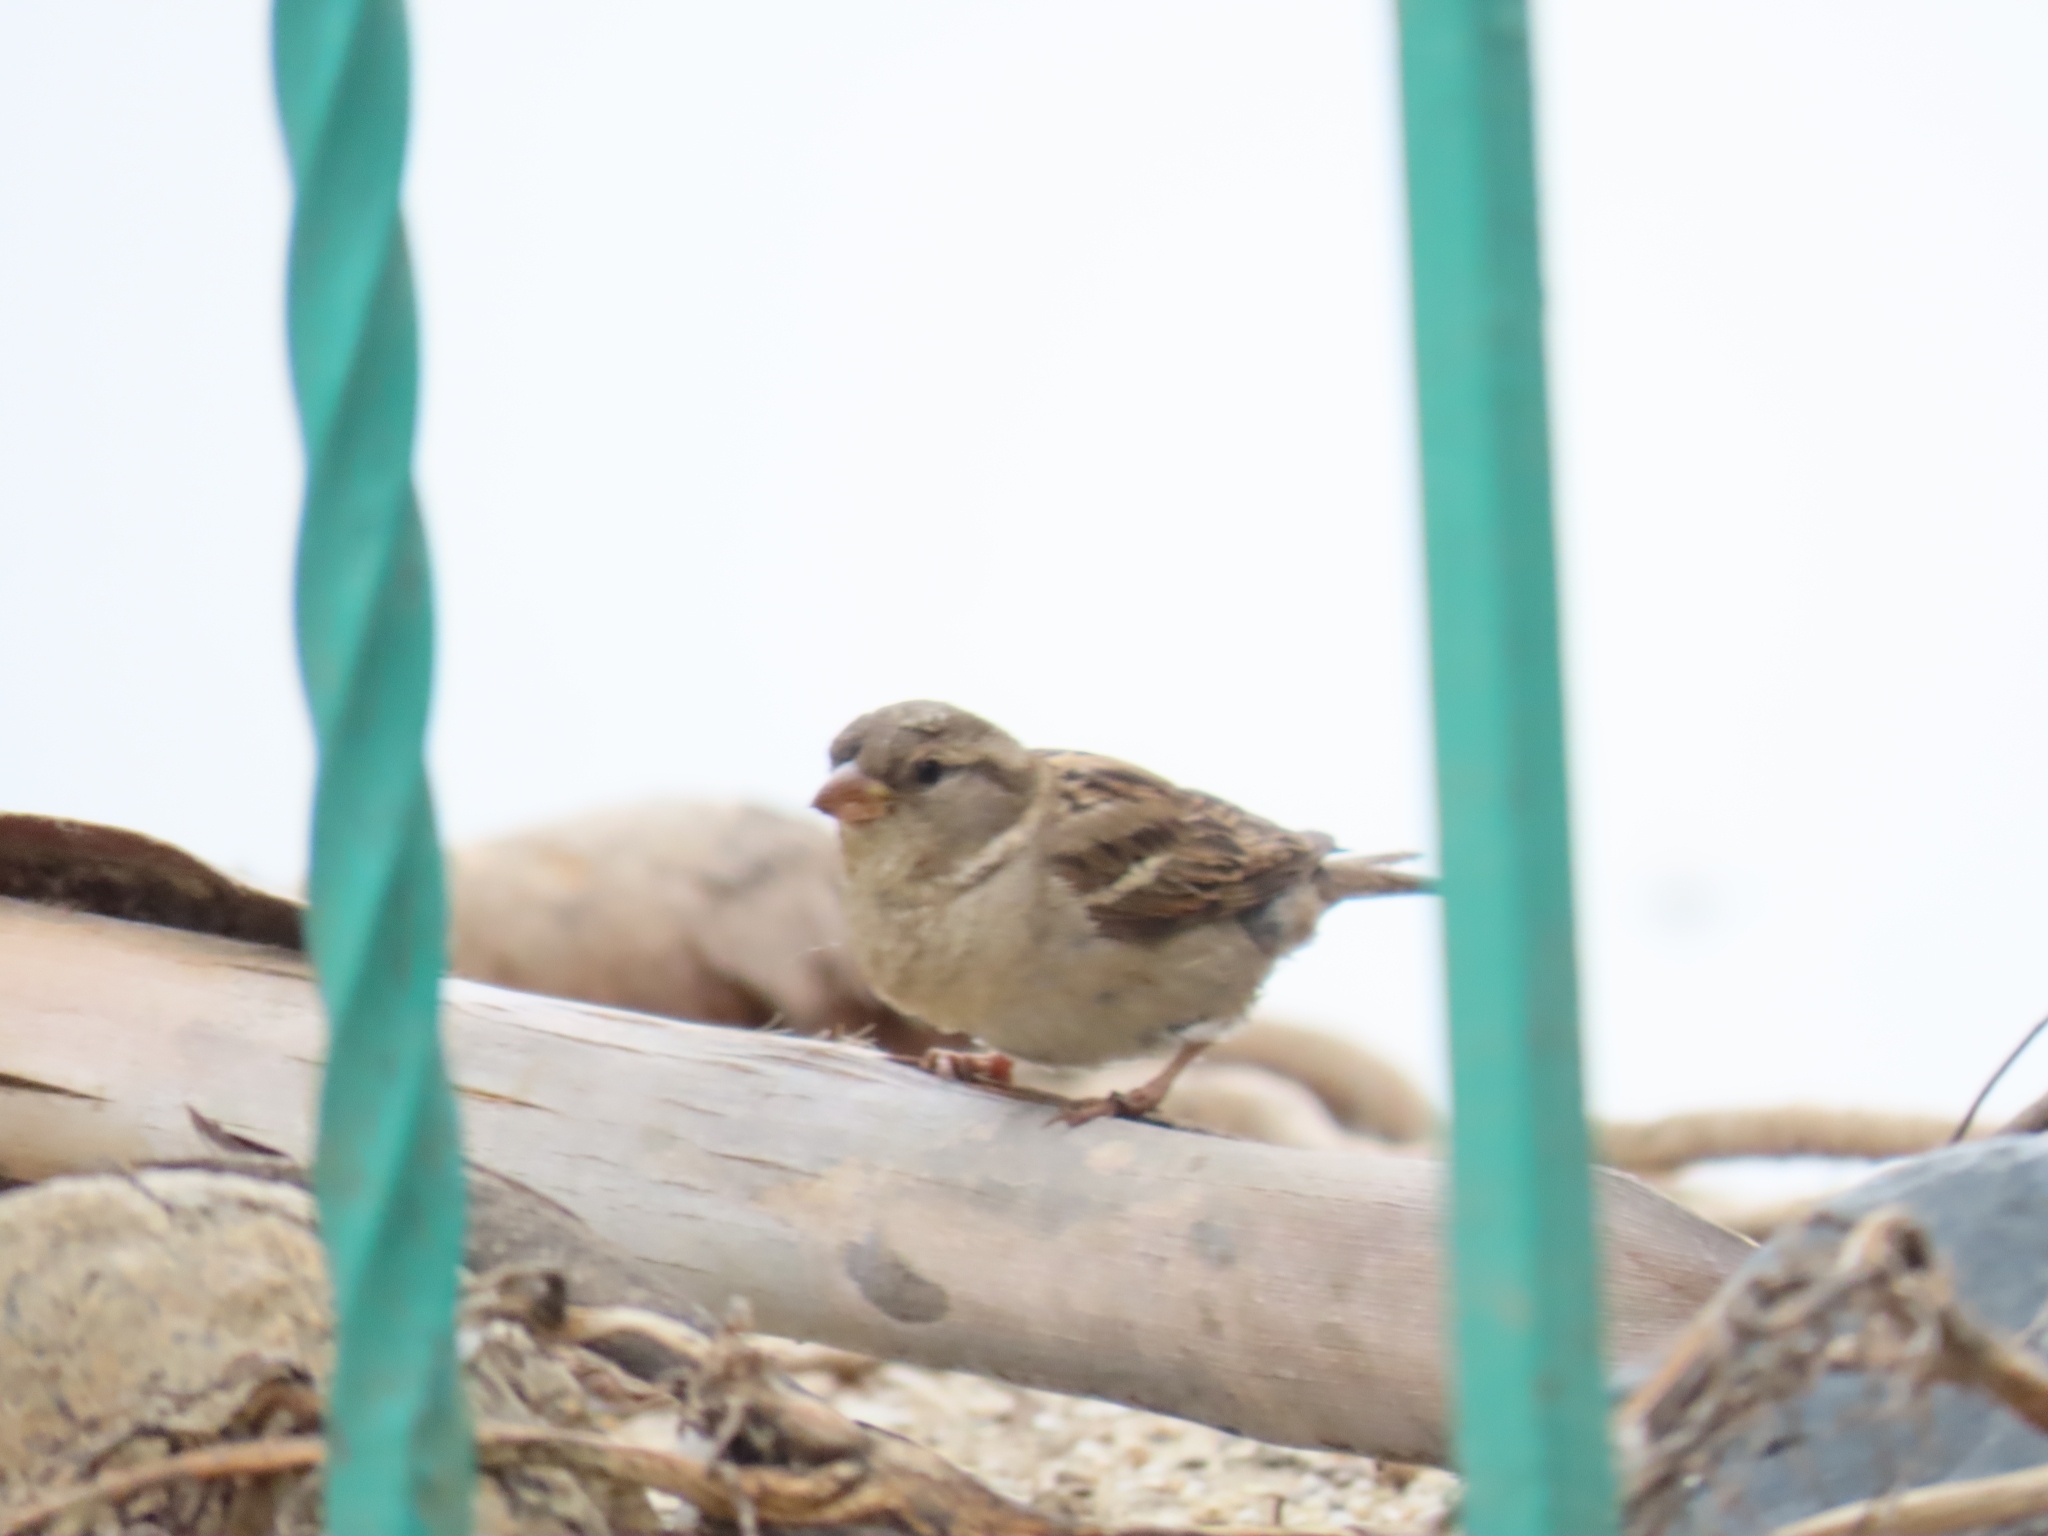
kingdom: Animalia
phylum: Chordata
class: Aves
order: Passeriformes
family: Passeridae
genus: Passer
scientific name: Passer domesticus
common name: House sparrow
